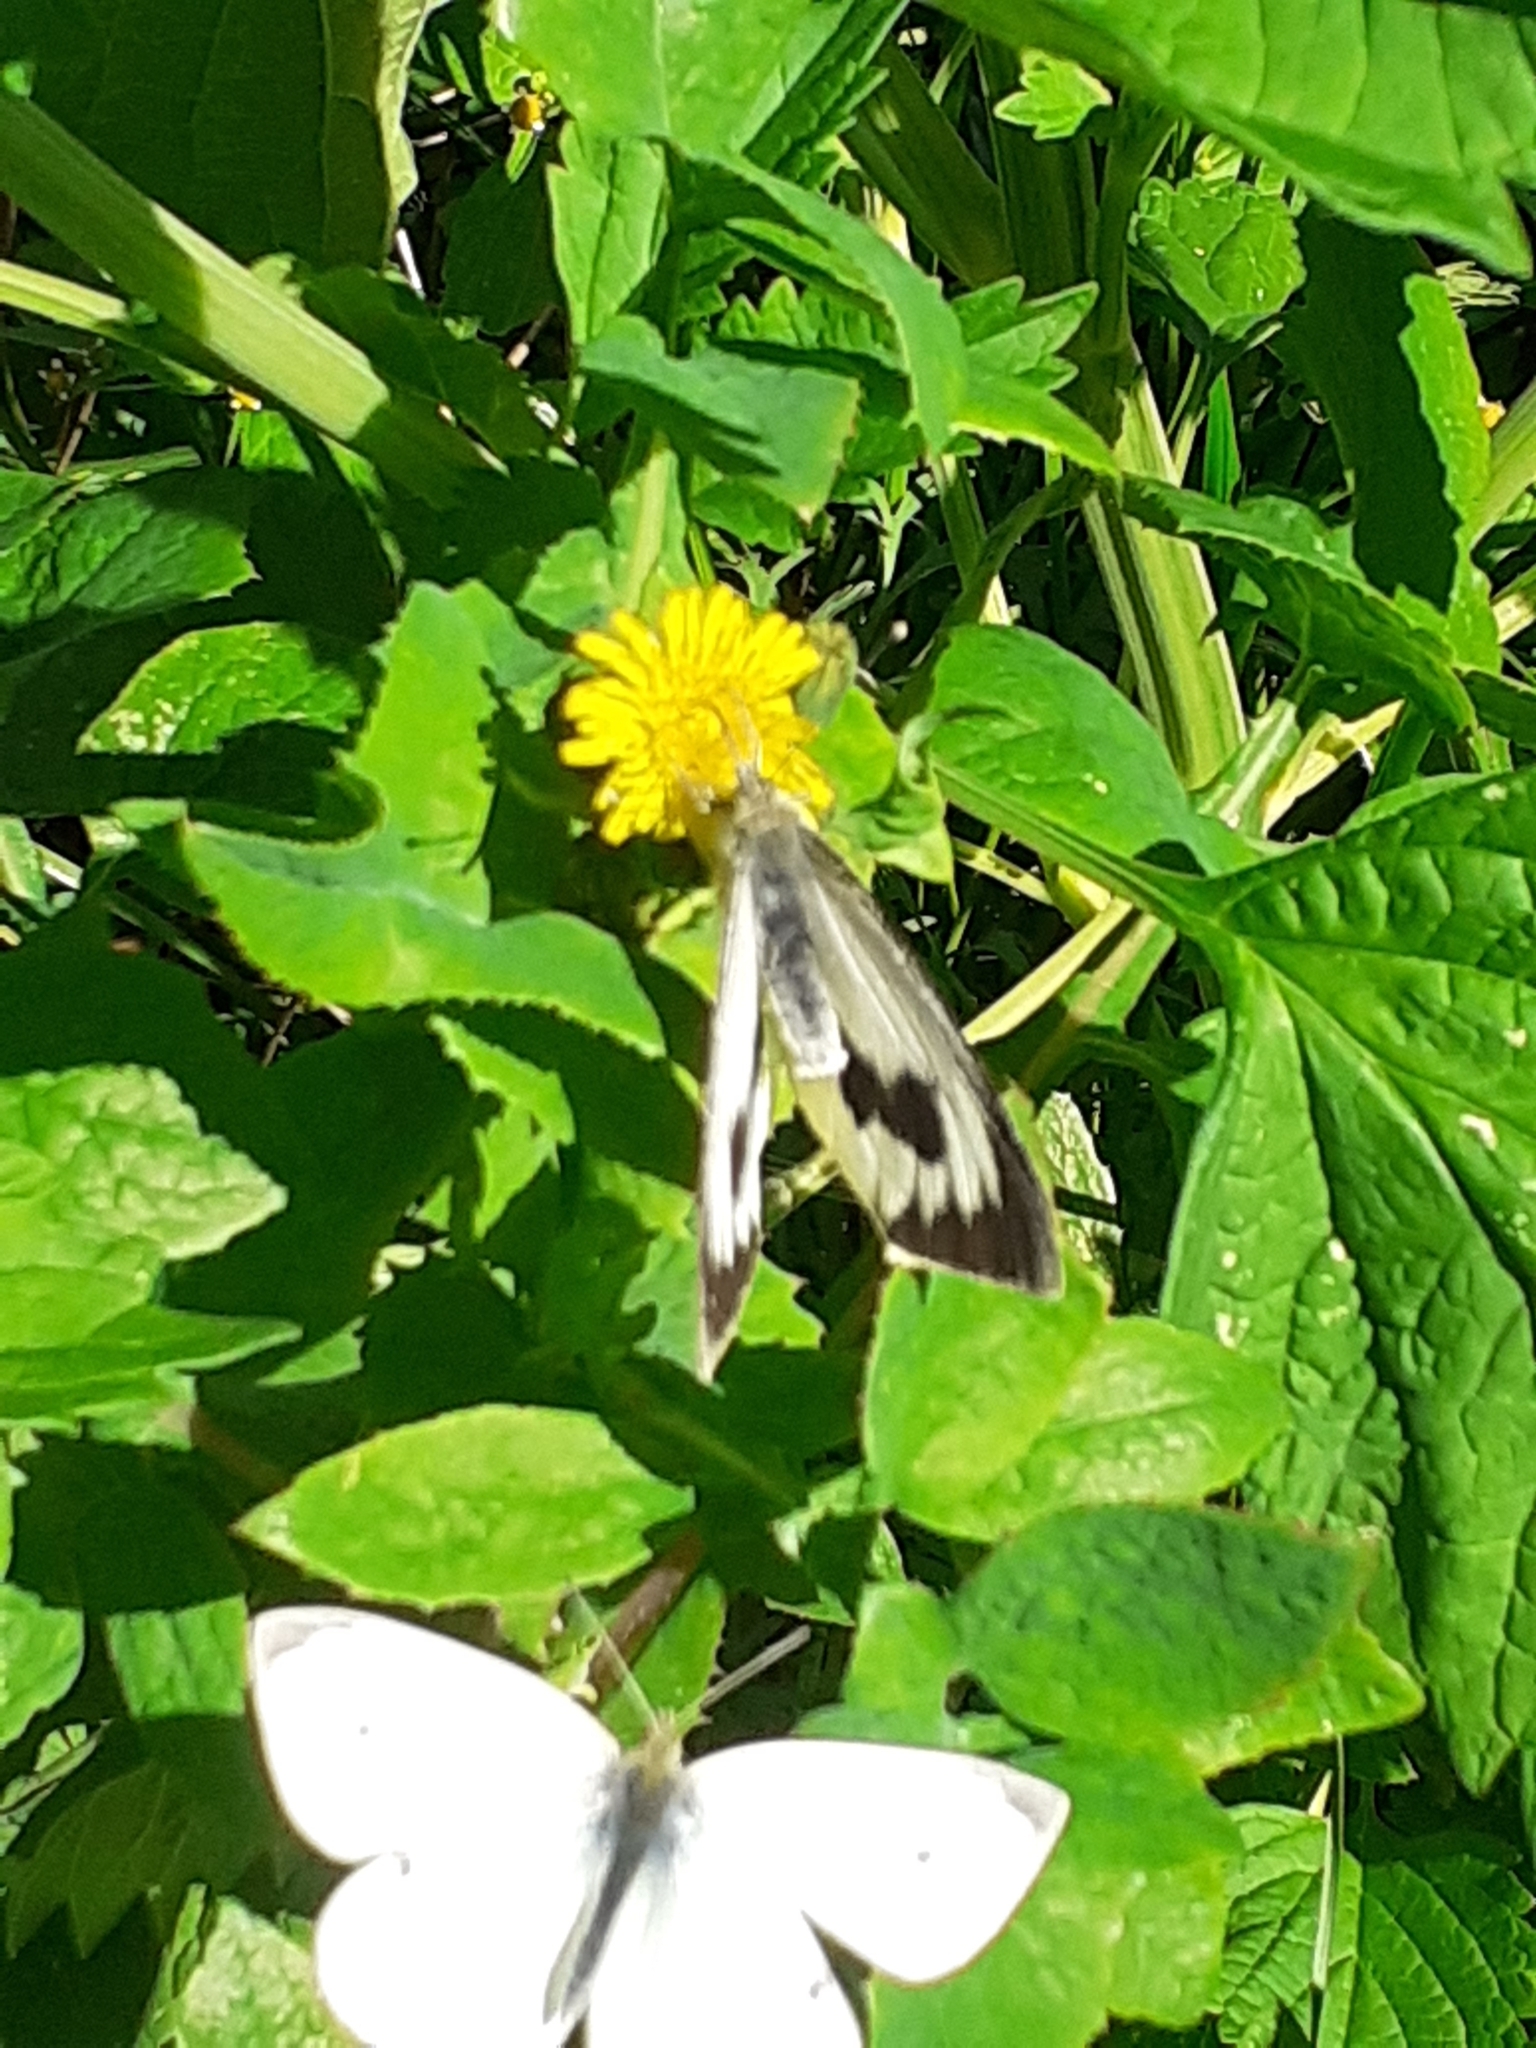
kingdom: Animalia
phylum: Arthropoda
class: Insecta
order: Lepidoptera
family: Pieridae
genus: Pieris
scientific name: Pieris cheiranthi
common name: Canary islands large white
